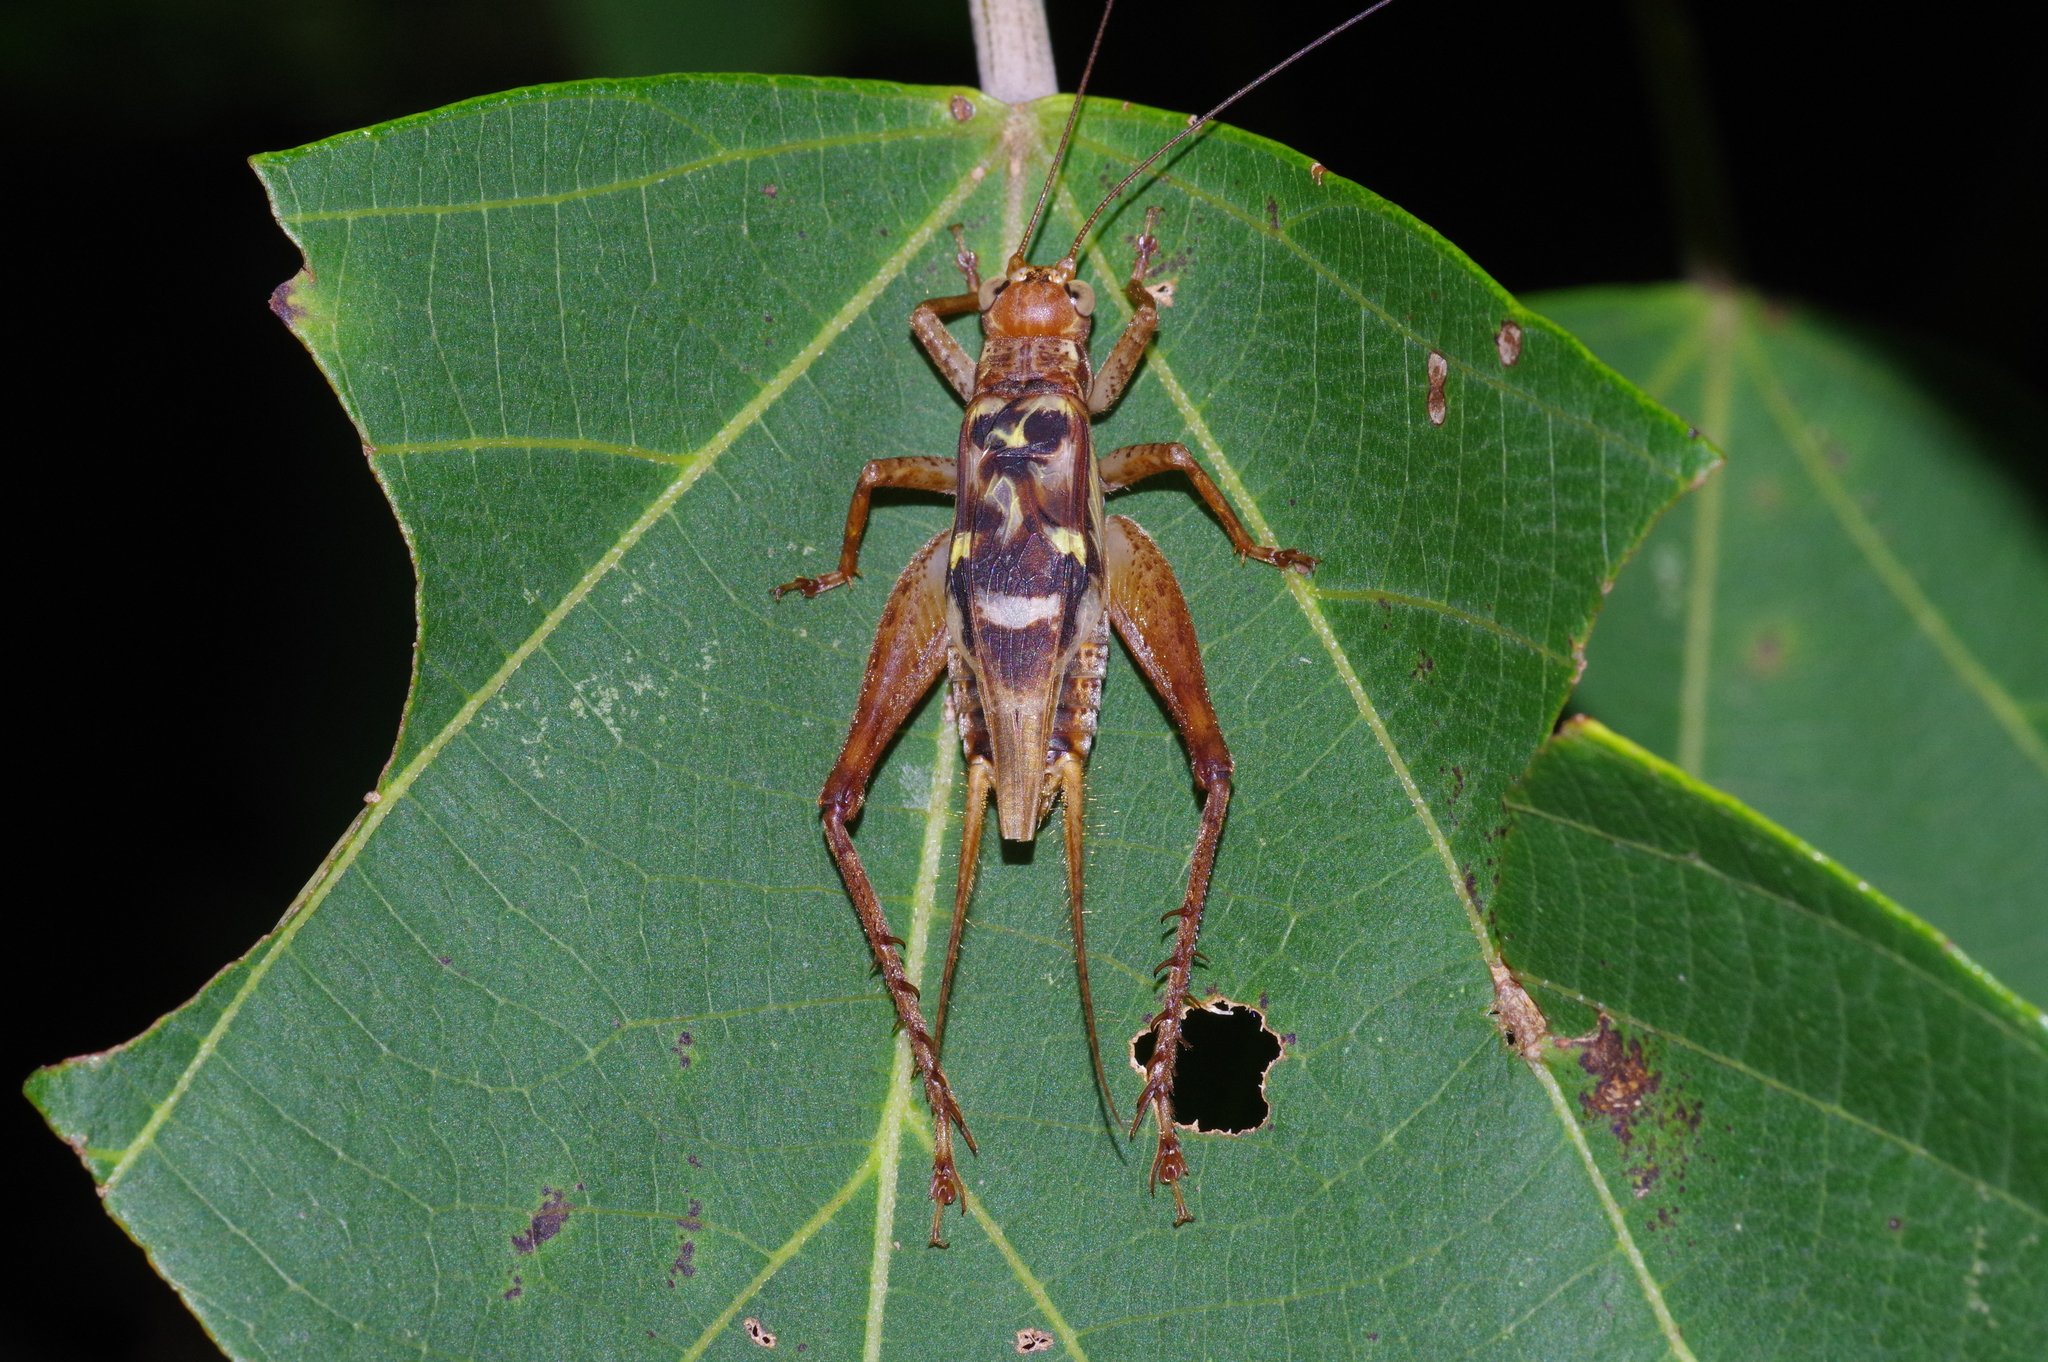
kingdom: Animalia
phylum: Arthropoda
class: Insecta
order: Orthoptera
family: Gryllidae
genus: Cardiodactylus
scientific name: Cardiodactylus guttulus
